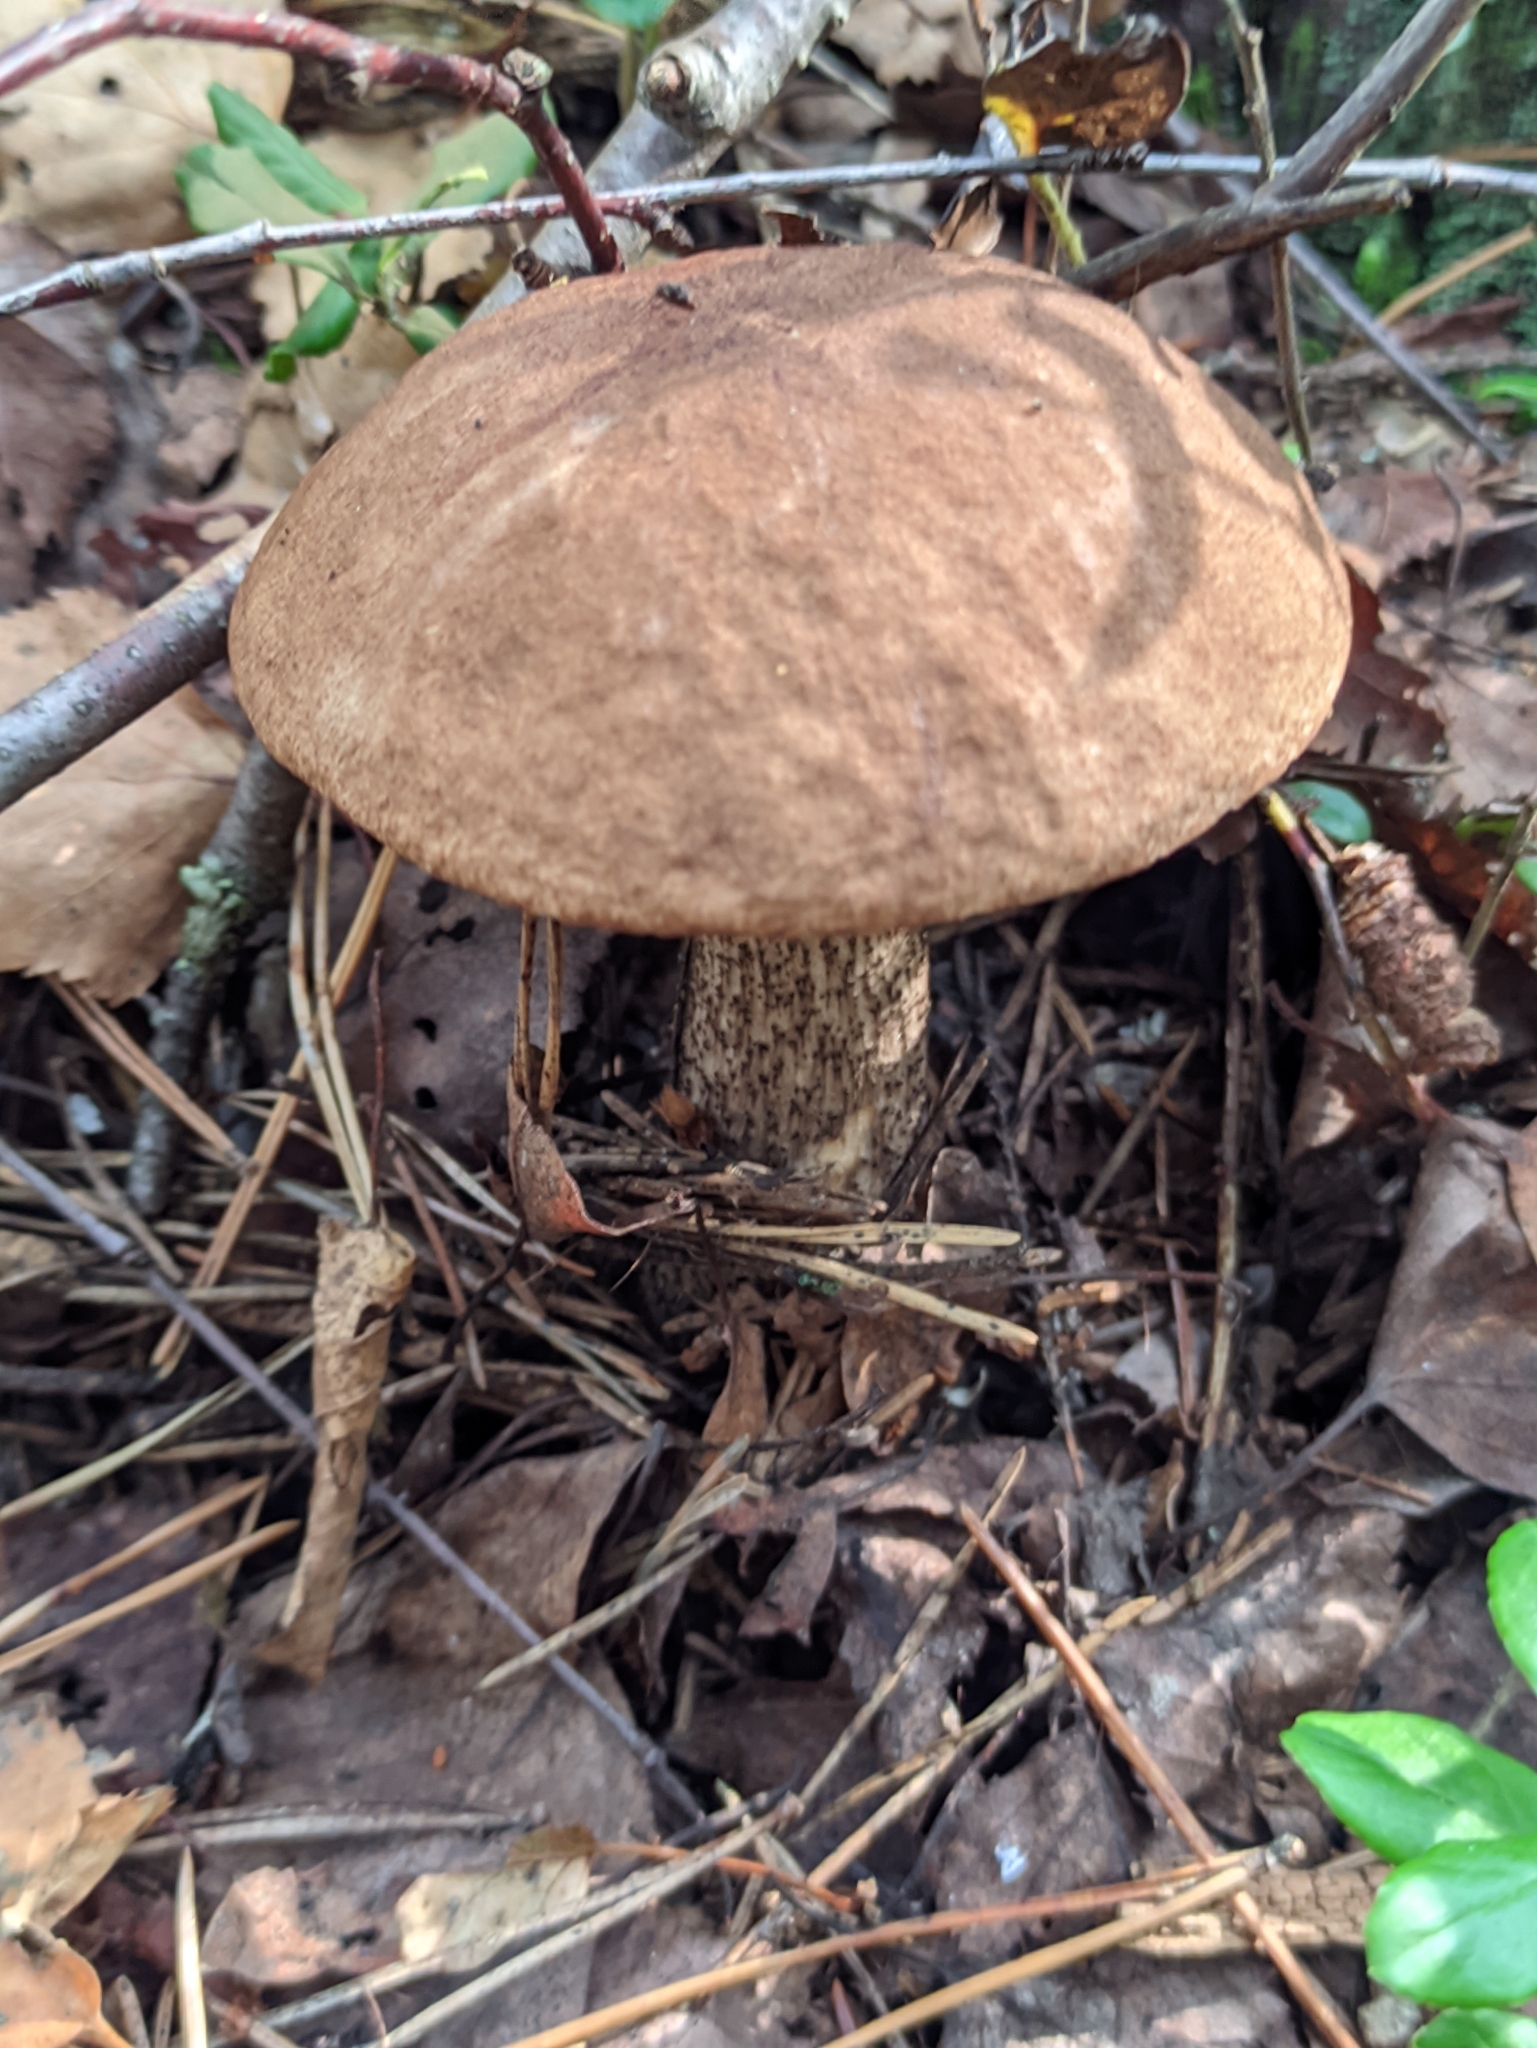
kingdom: Fungi
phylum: Basidiomycota
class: Agaricomycetes
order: Boletales
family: Boletaceae
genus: Leccinum
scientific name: Leccinum scabrum
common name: Blushing bolete
